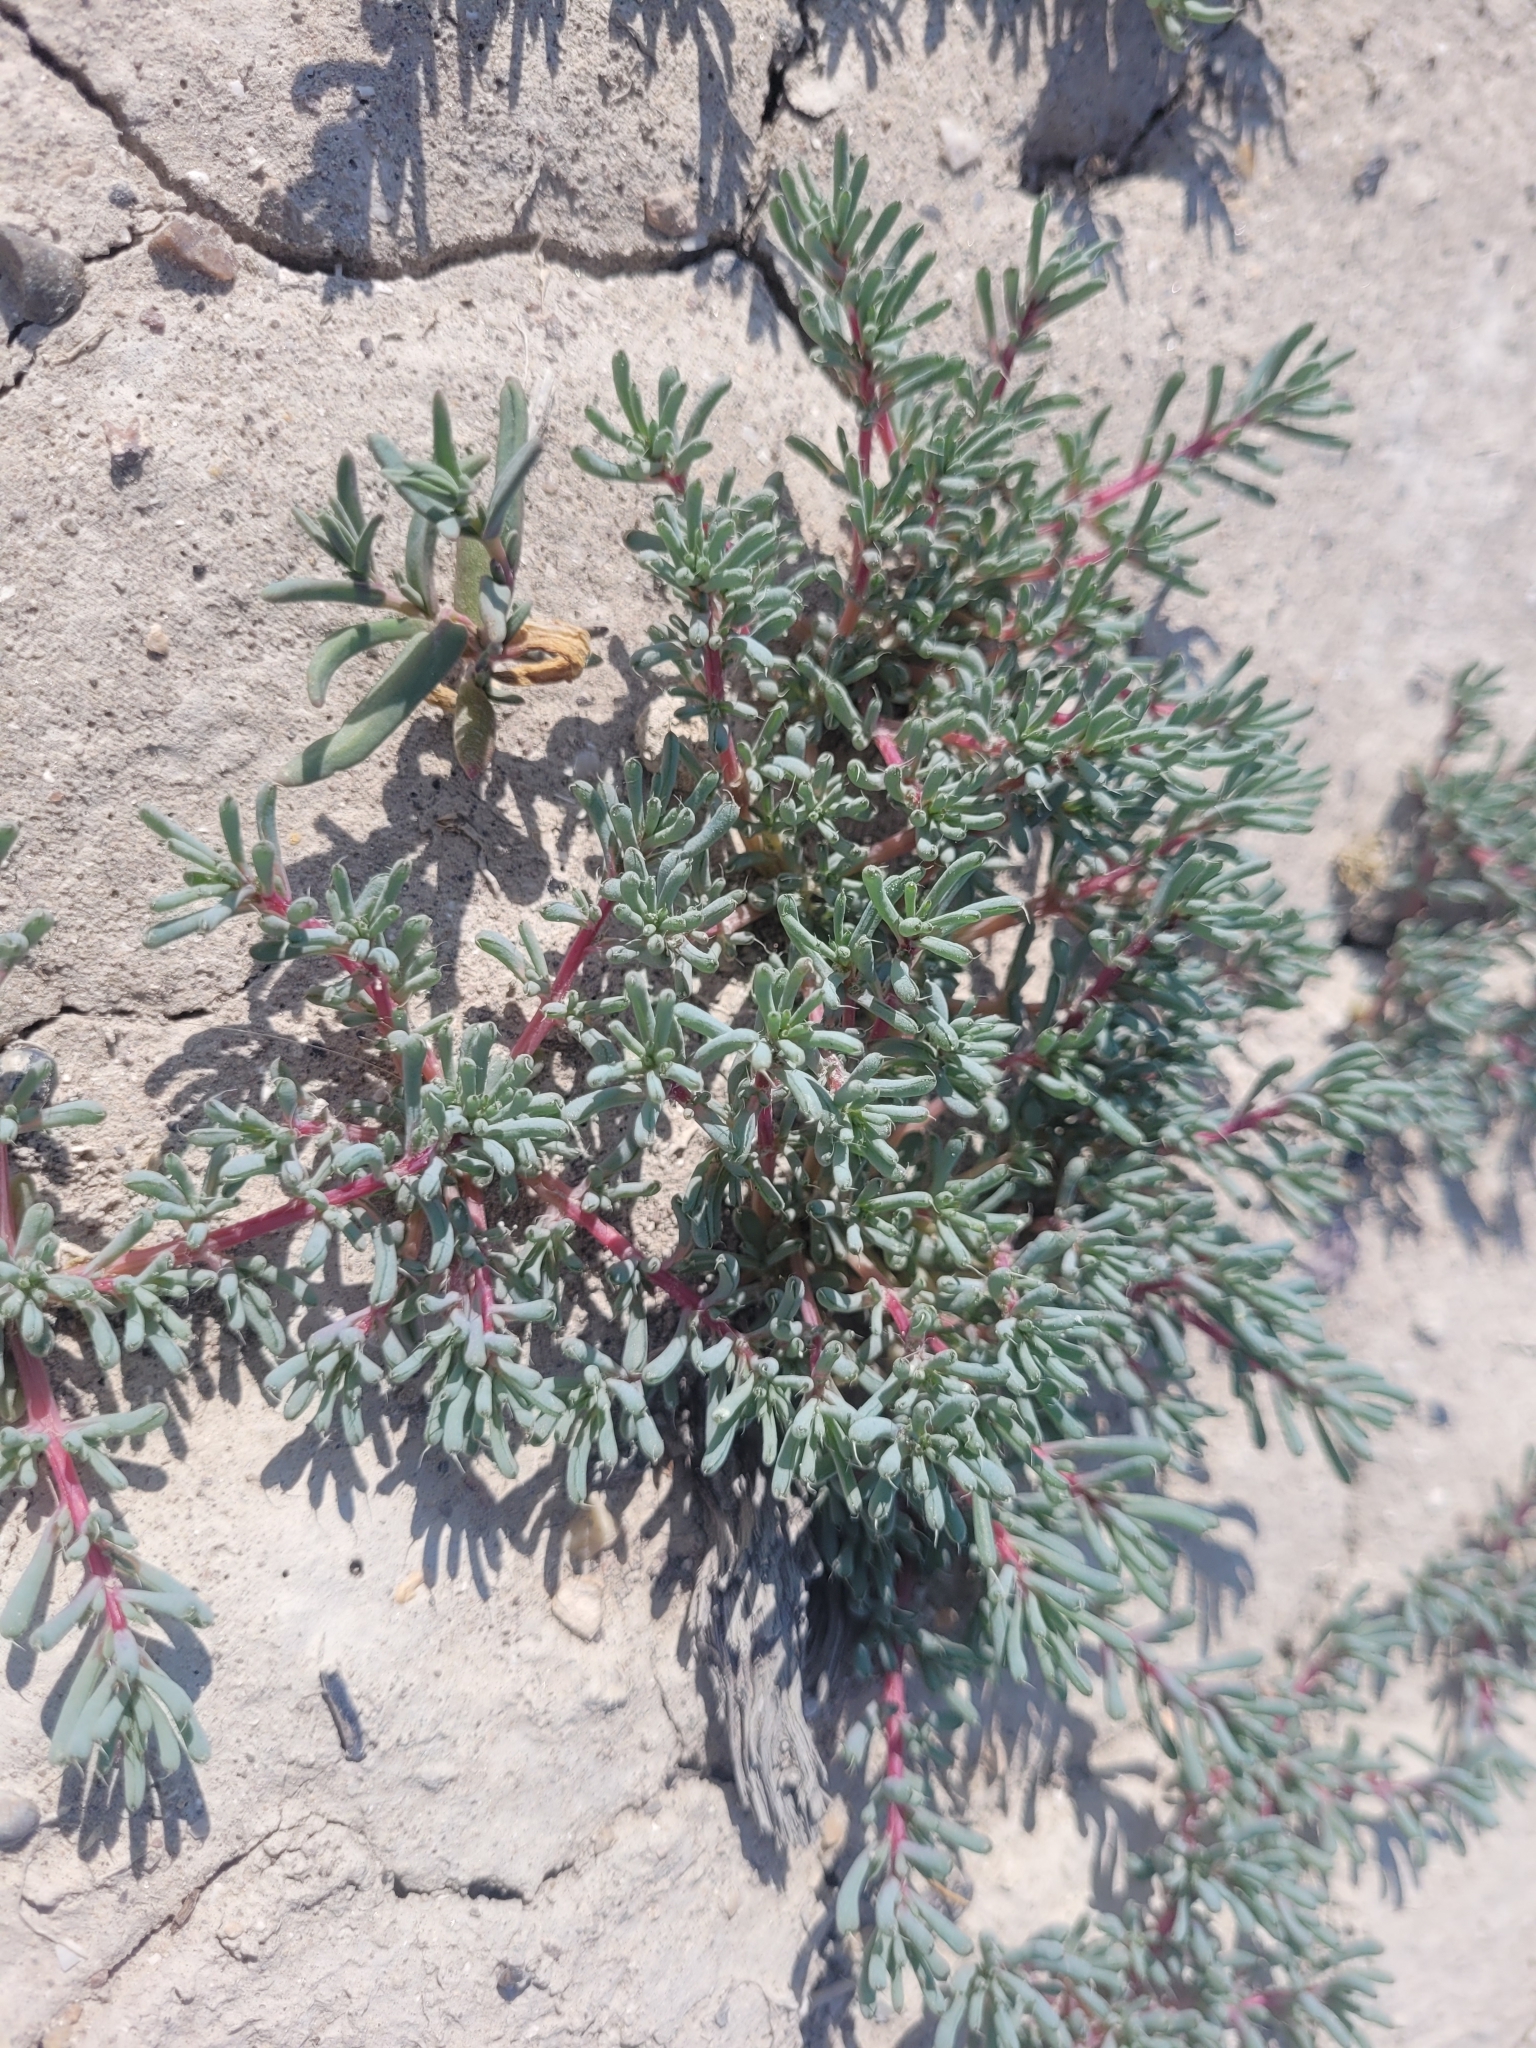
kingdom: Plantae
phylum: Tracheophyta
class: Magnoliopsida
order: Caryophyllales
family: Amaranthaceae
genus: Halogeton
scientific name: Halogeton glomeratus
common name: Saltlover
